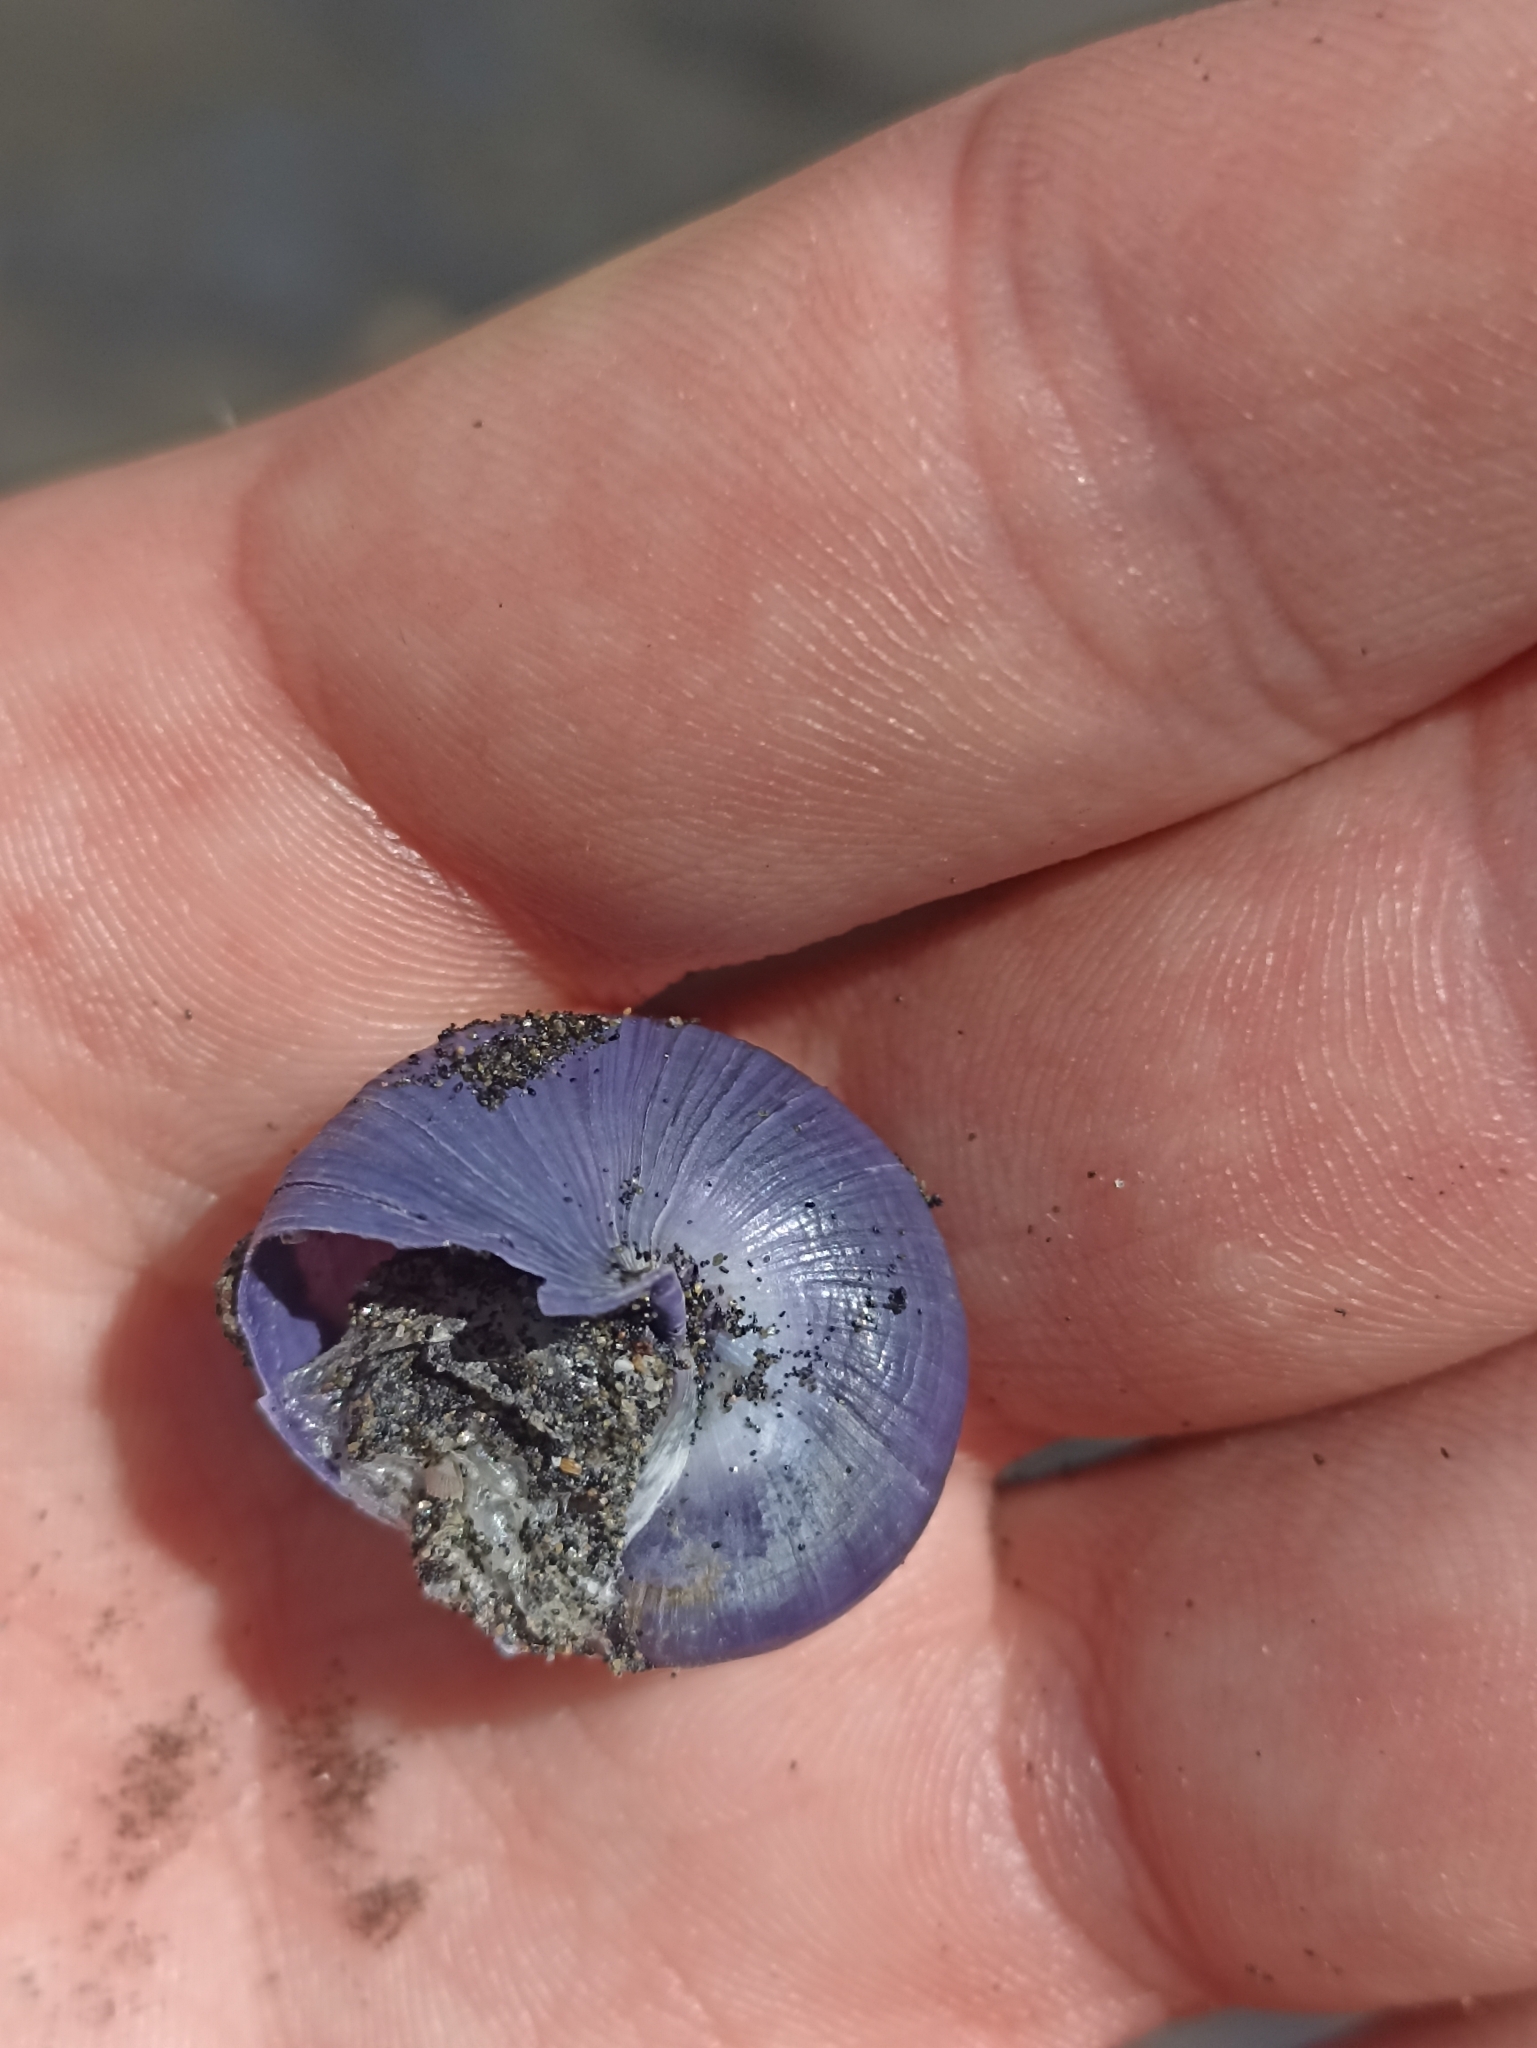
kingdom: Animalia
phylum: Mollusca
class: Gastropoda
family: Epitoniidae
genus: Janthina
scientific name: Janthina janthina
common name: Common janthina
